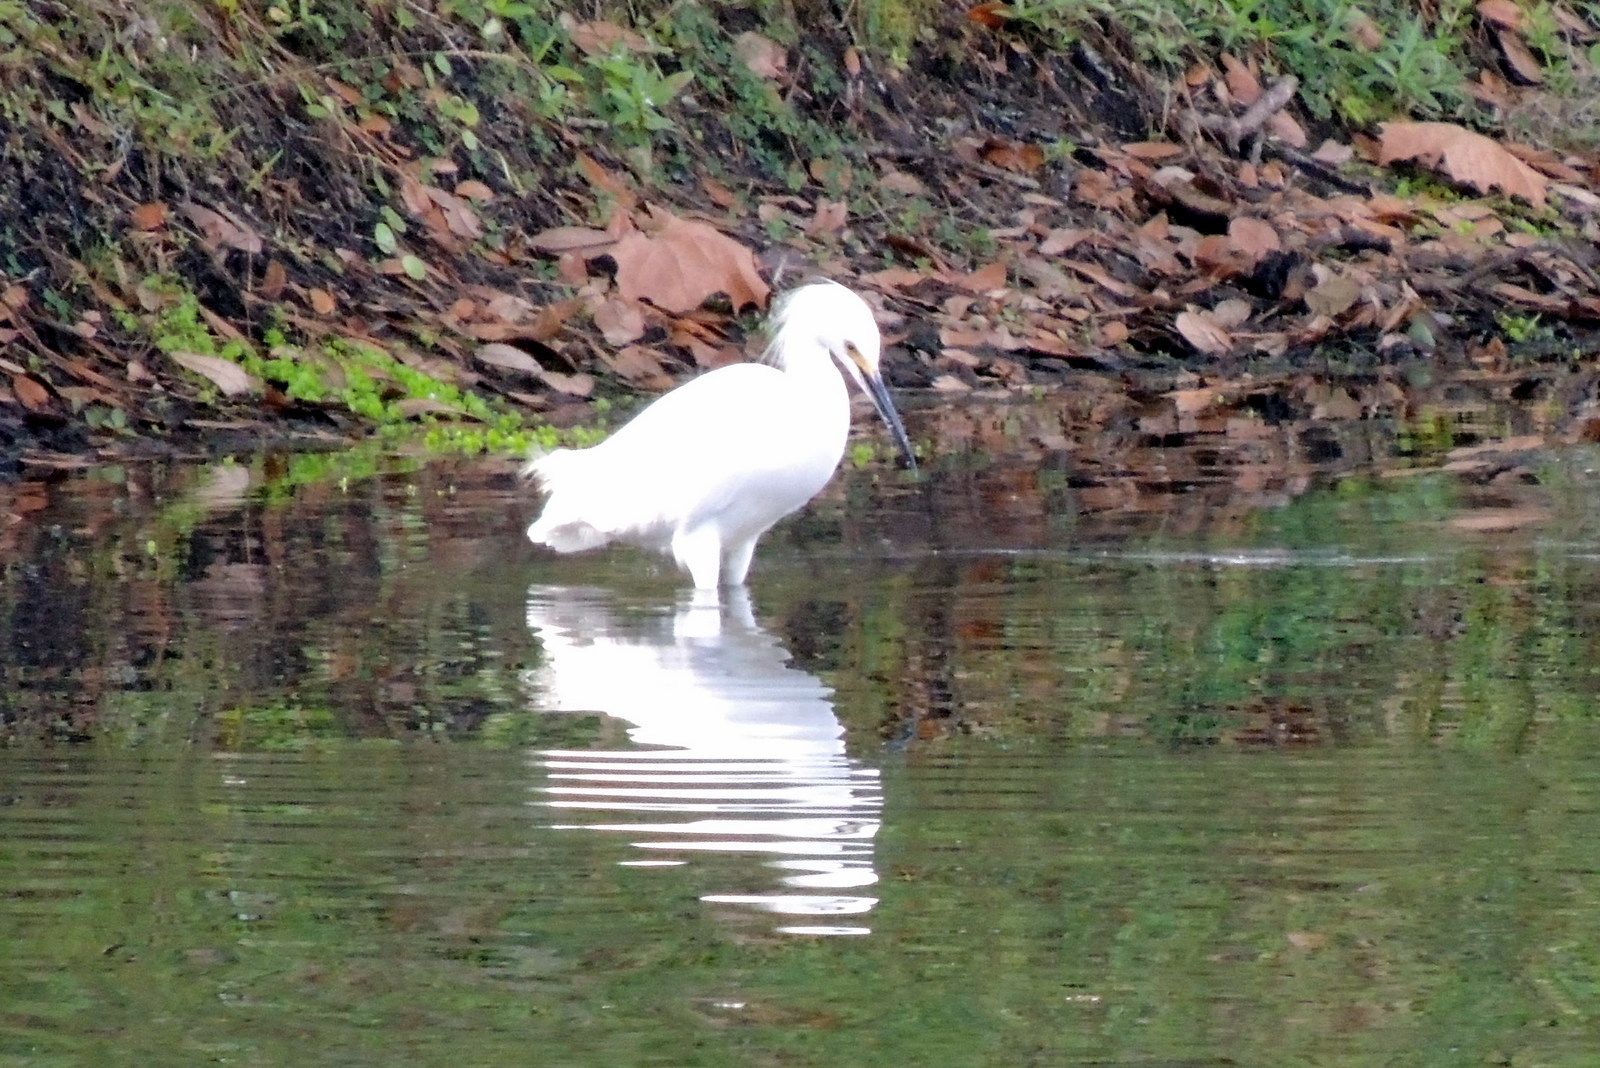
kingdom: Animalia
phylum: Chordata
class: Aves
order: Pelecaniformes
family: Ardeidae
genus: Egretta
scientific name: Egretta thula
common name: Snowy egret
